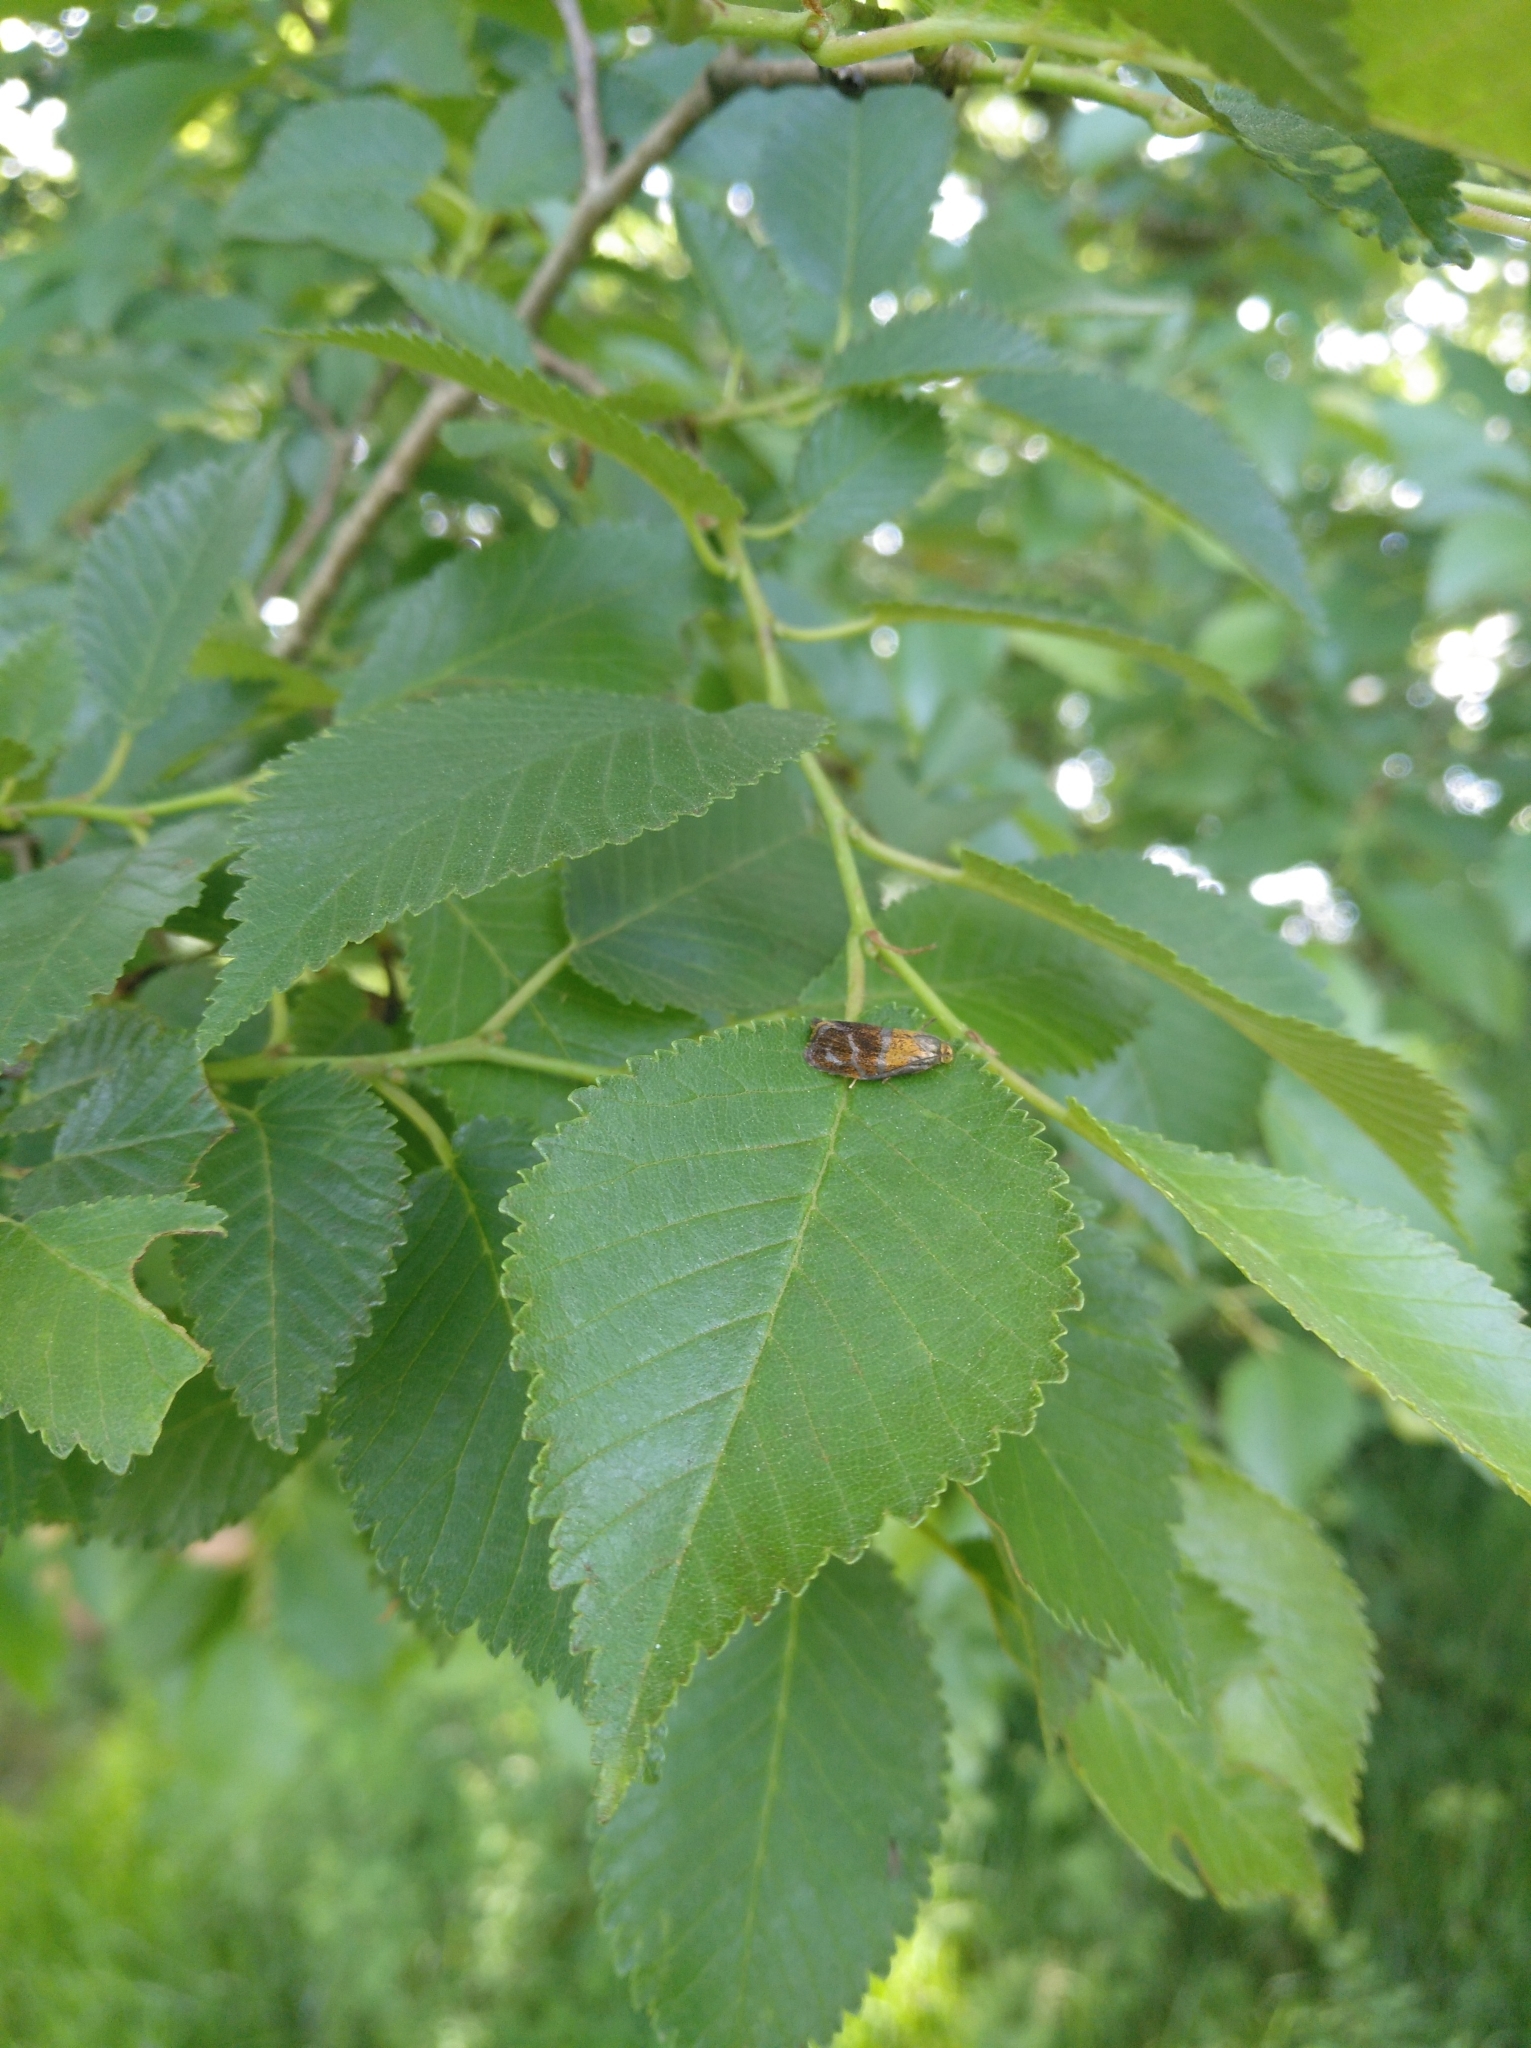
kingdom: Animalia
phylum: Arthropoda
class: Insecta
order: Lepidoptera
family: Tortricidae
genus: Ptycholoma
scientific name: Ptycholoma lecheana
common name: Leches twist moth
